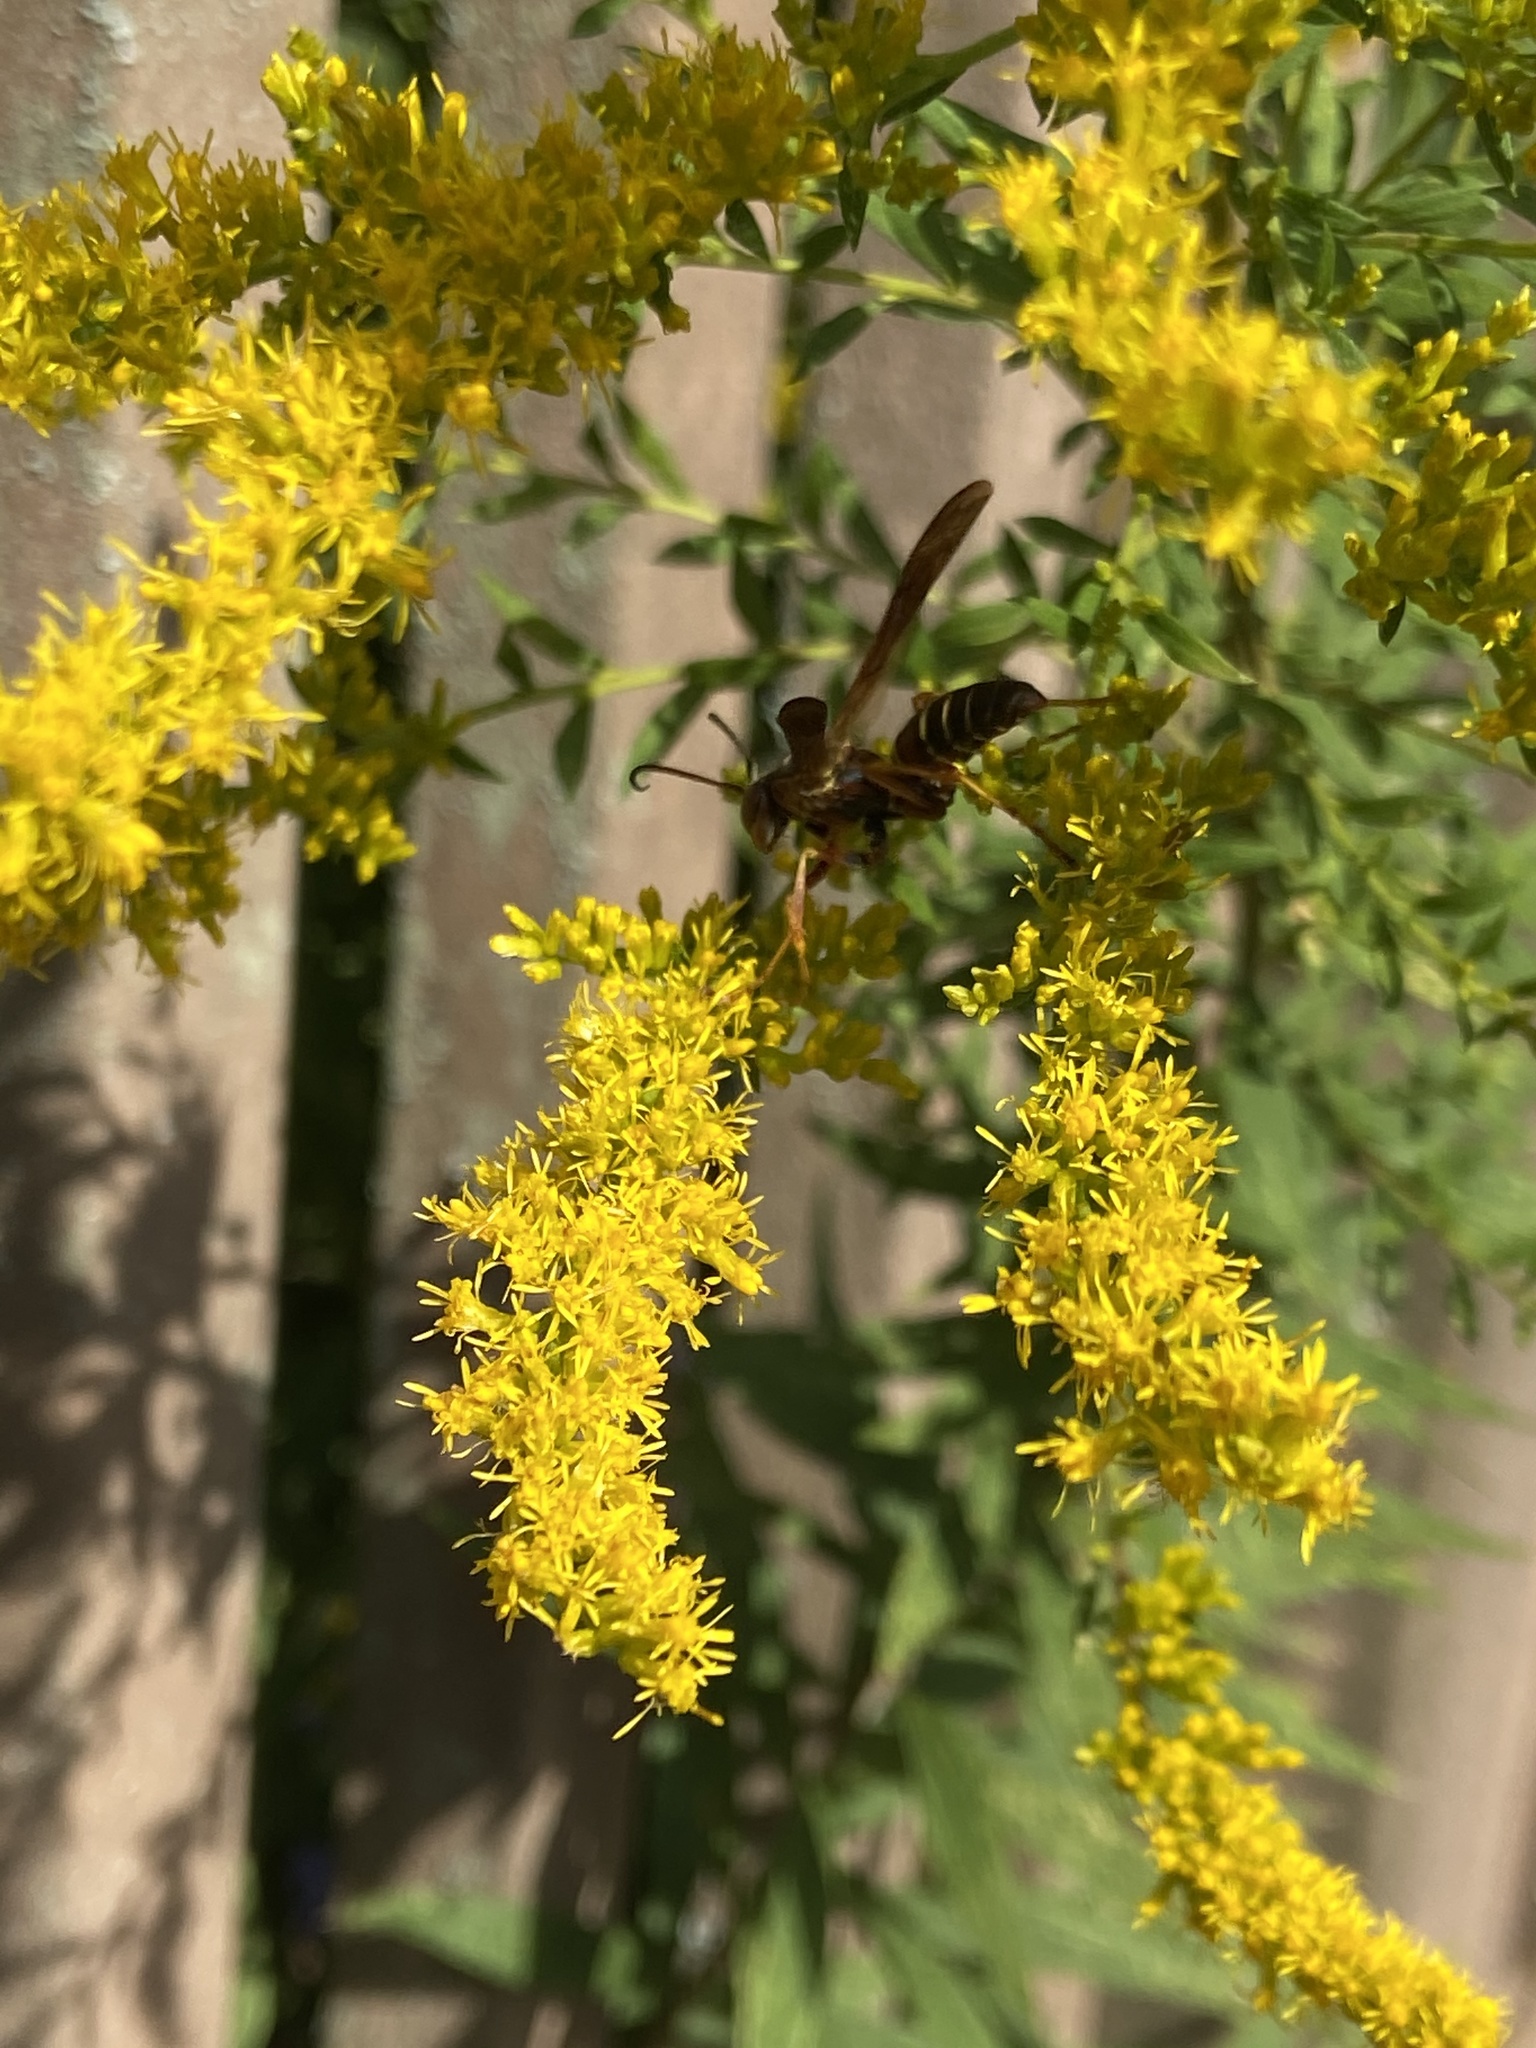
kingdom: Animalia
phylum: Arthropoda
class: Insecta
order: Hymenoptera
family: Eumenidae
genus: Polistes
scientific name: Polistes fuscatus
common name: Dark paper wasp
